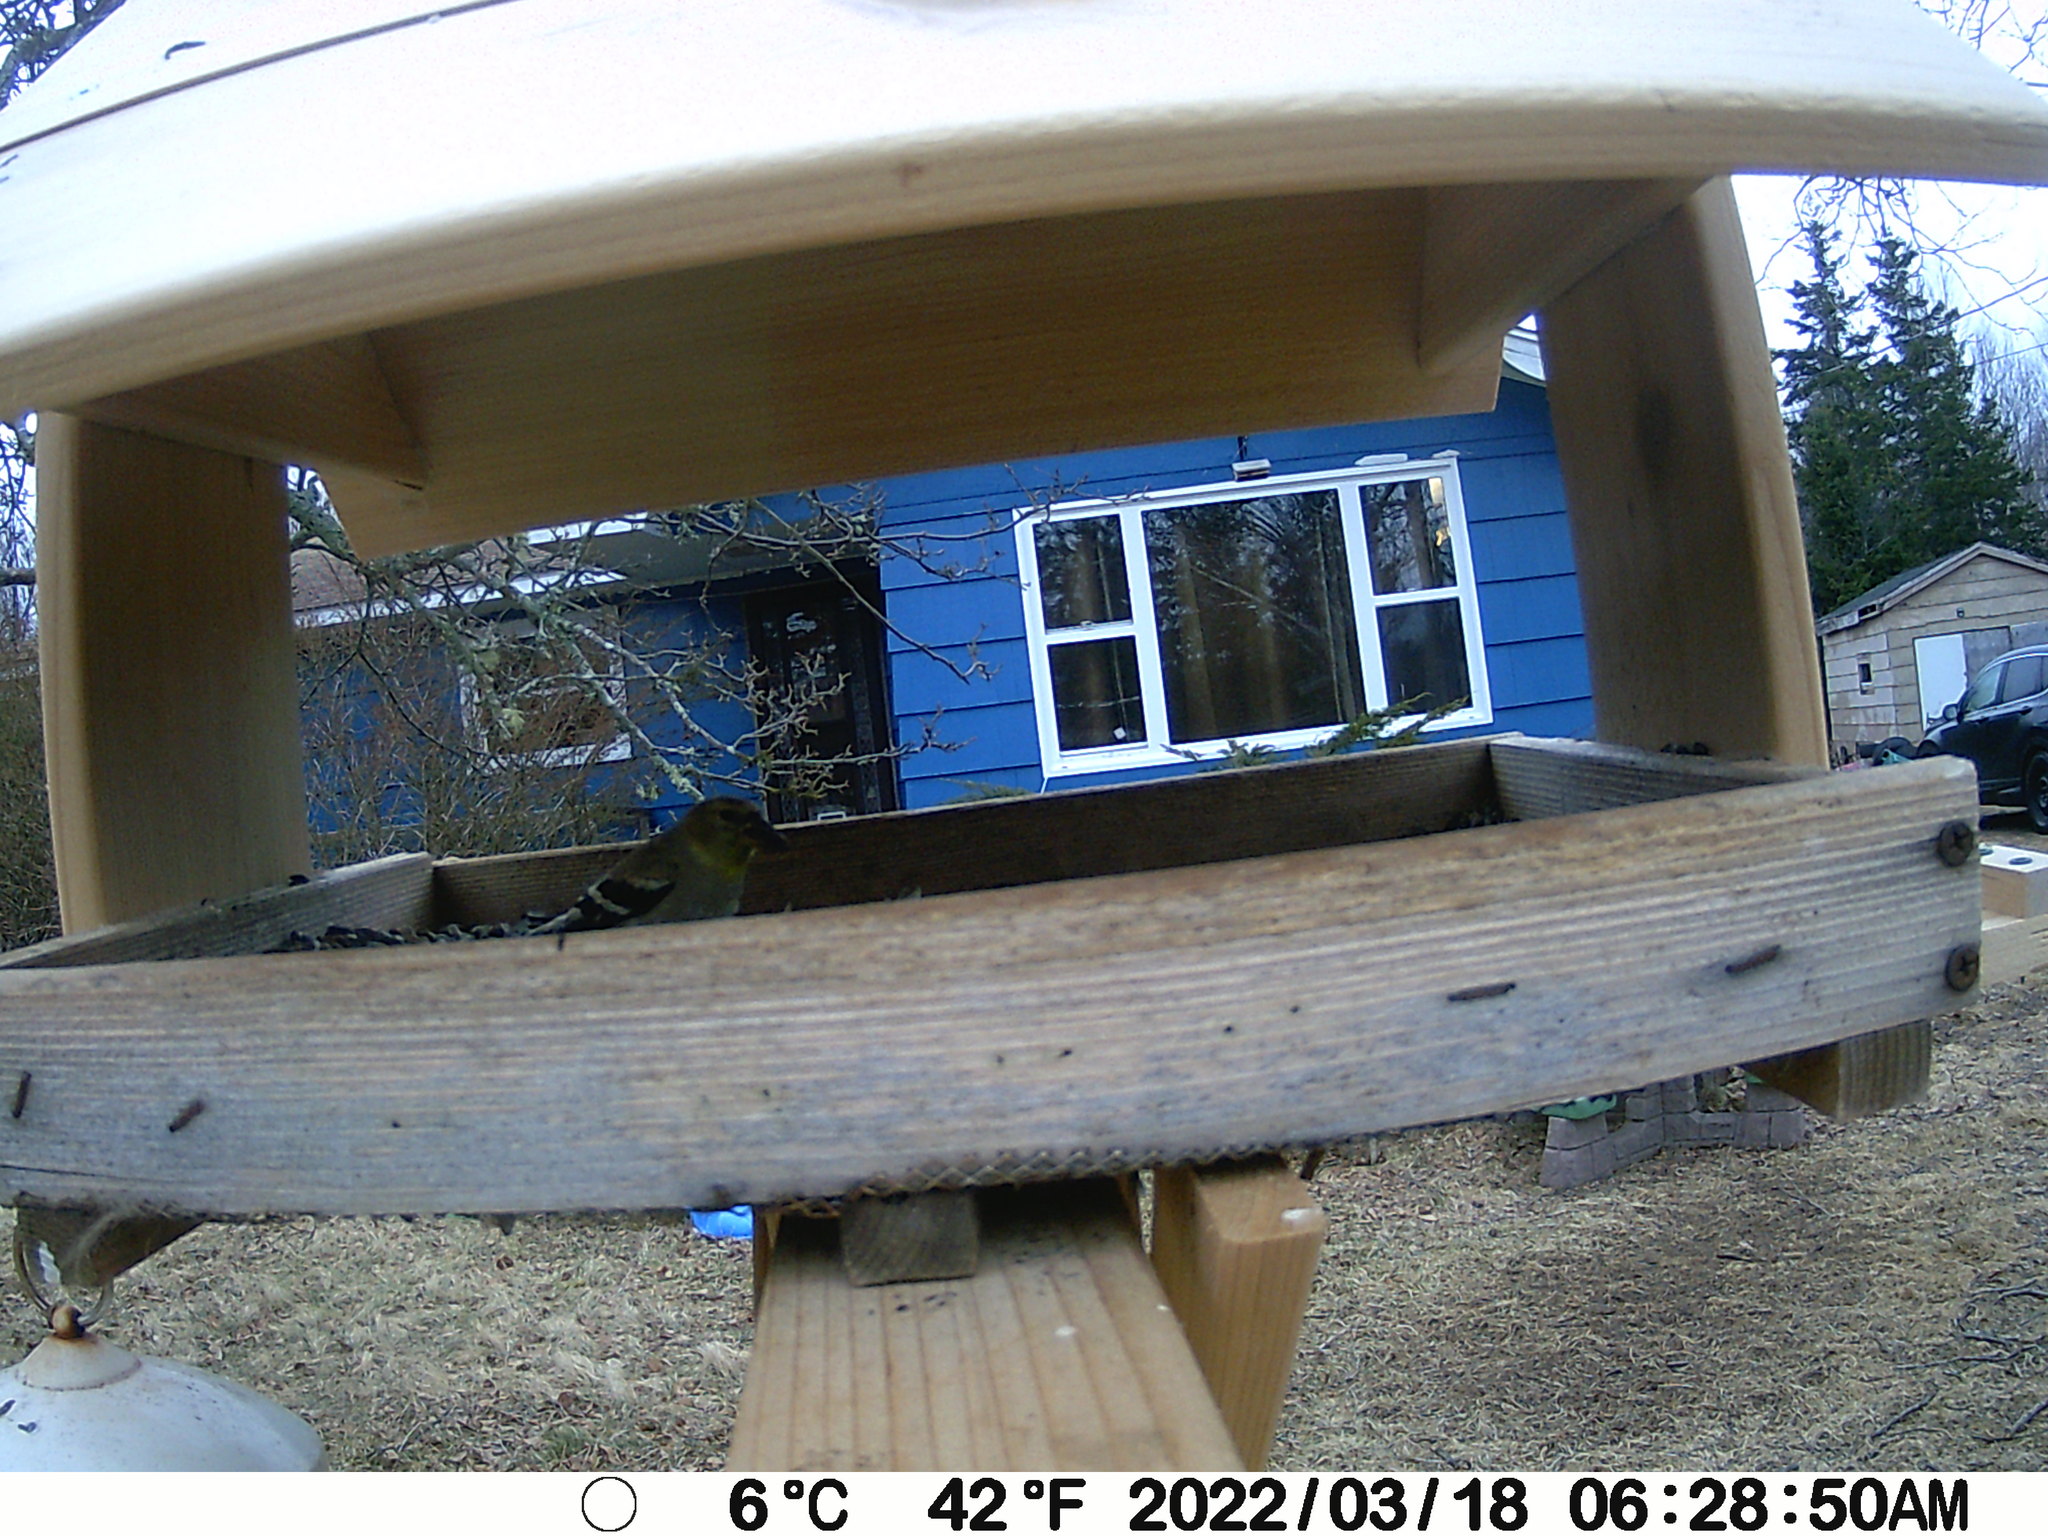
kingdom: Animalia
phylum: Chordata
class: Aves
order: Passeriformes
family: Fringillidae
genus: Spinus
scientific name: Spinus tristis
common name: American goldfinch
